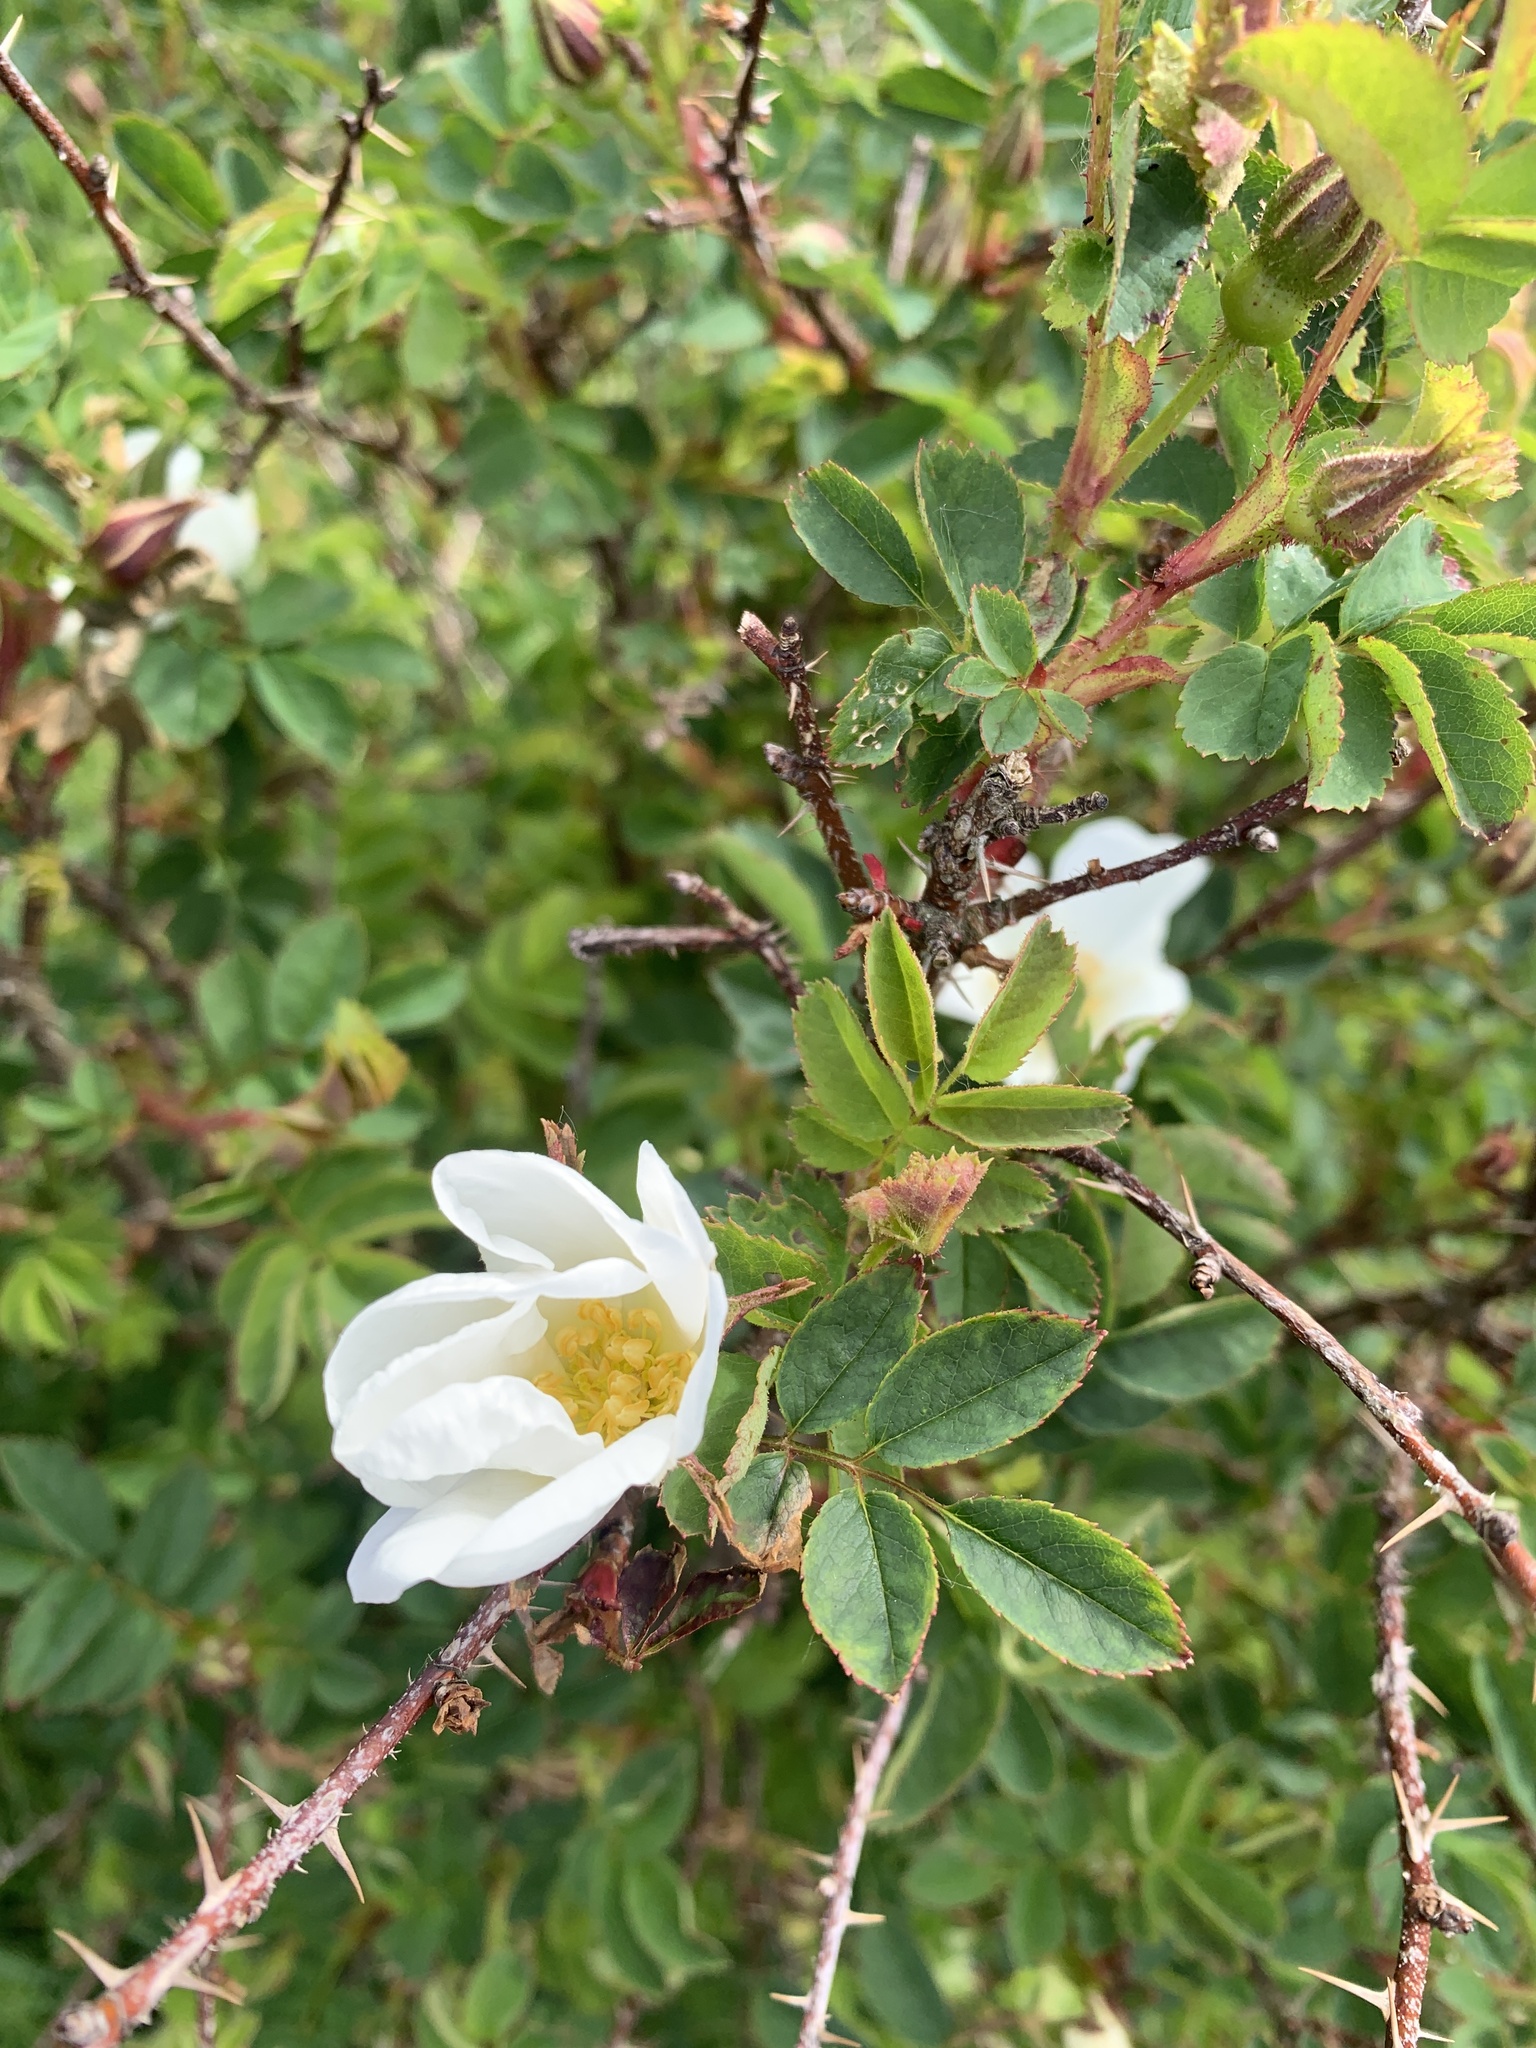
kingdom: Plantae
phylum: Tracheophyta
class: Magnoliopsida
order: Rosales
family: Rosaceae
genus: Rosa
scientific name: Rosa spinosissima
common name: Burnet rose
